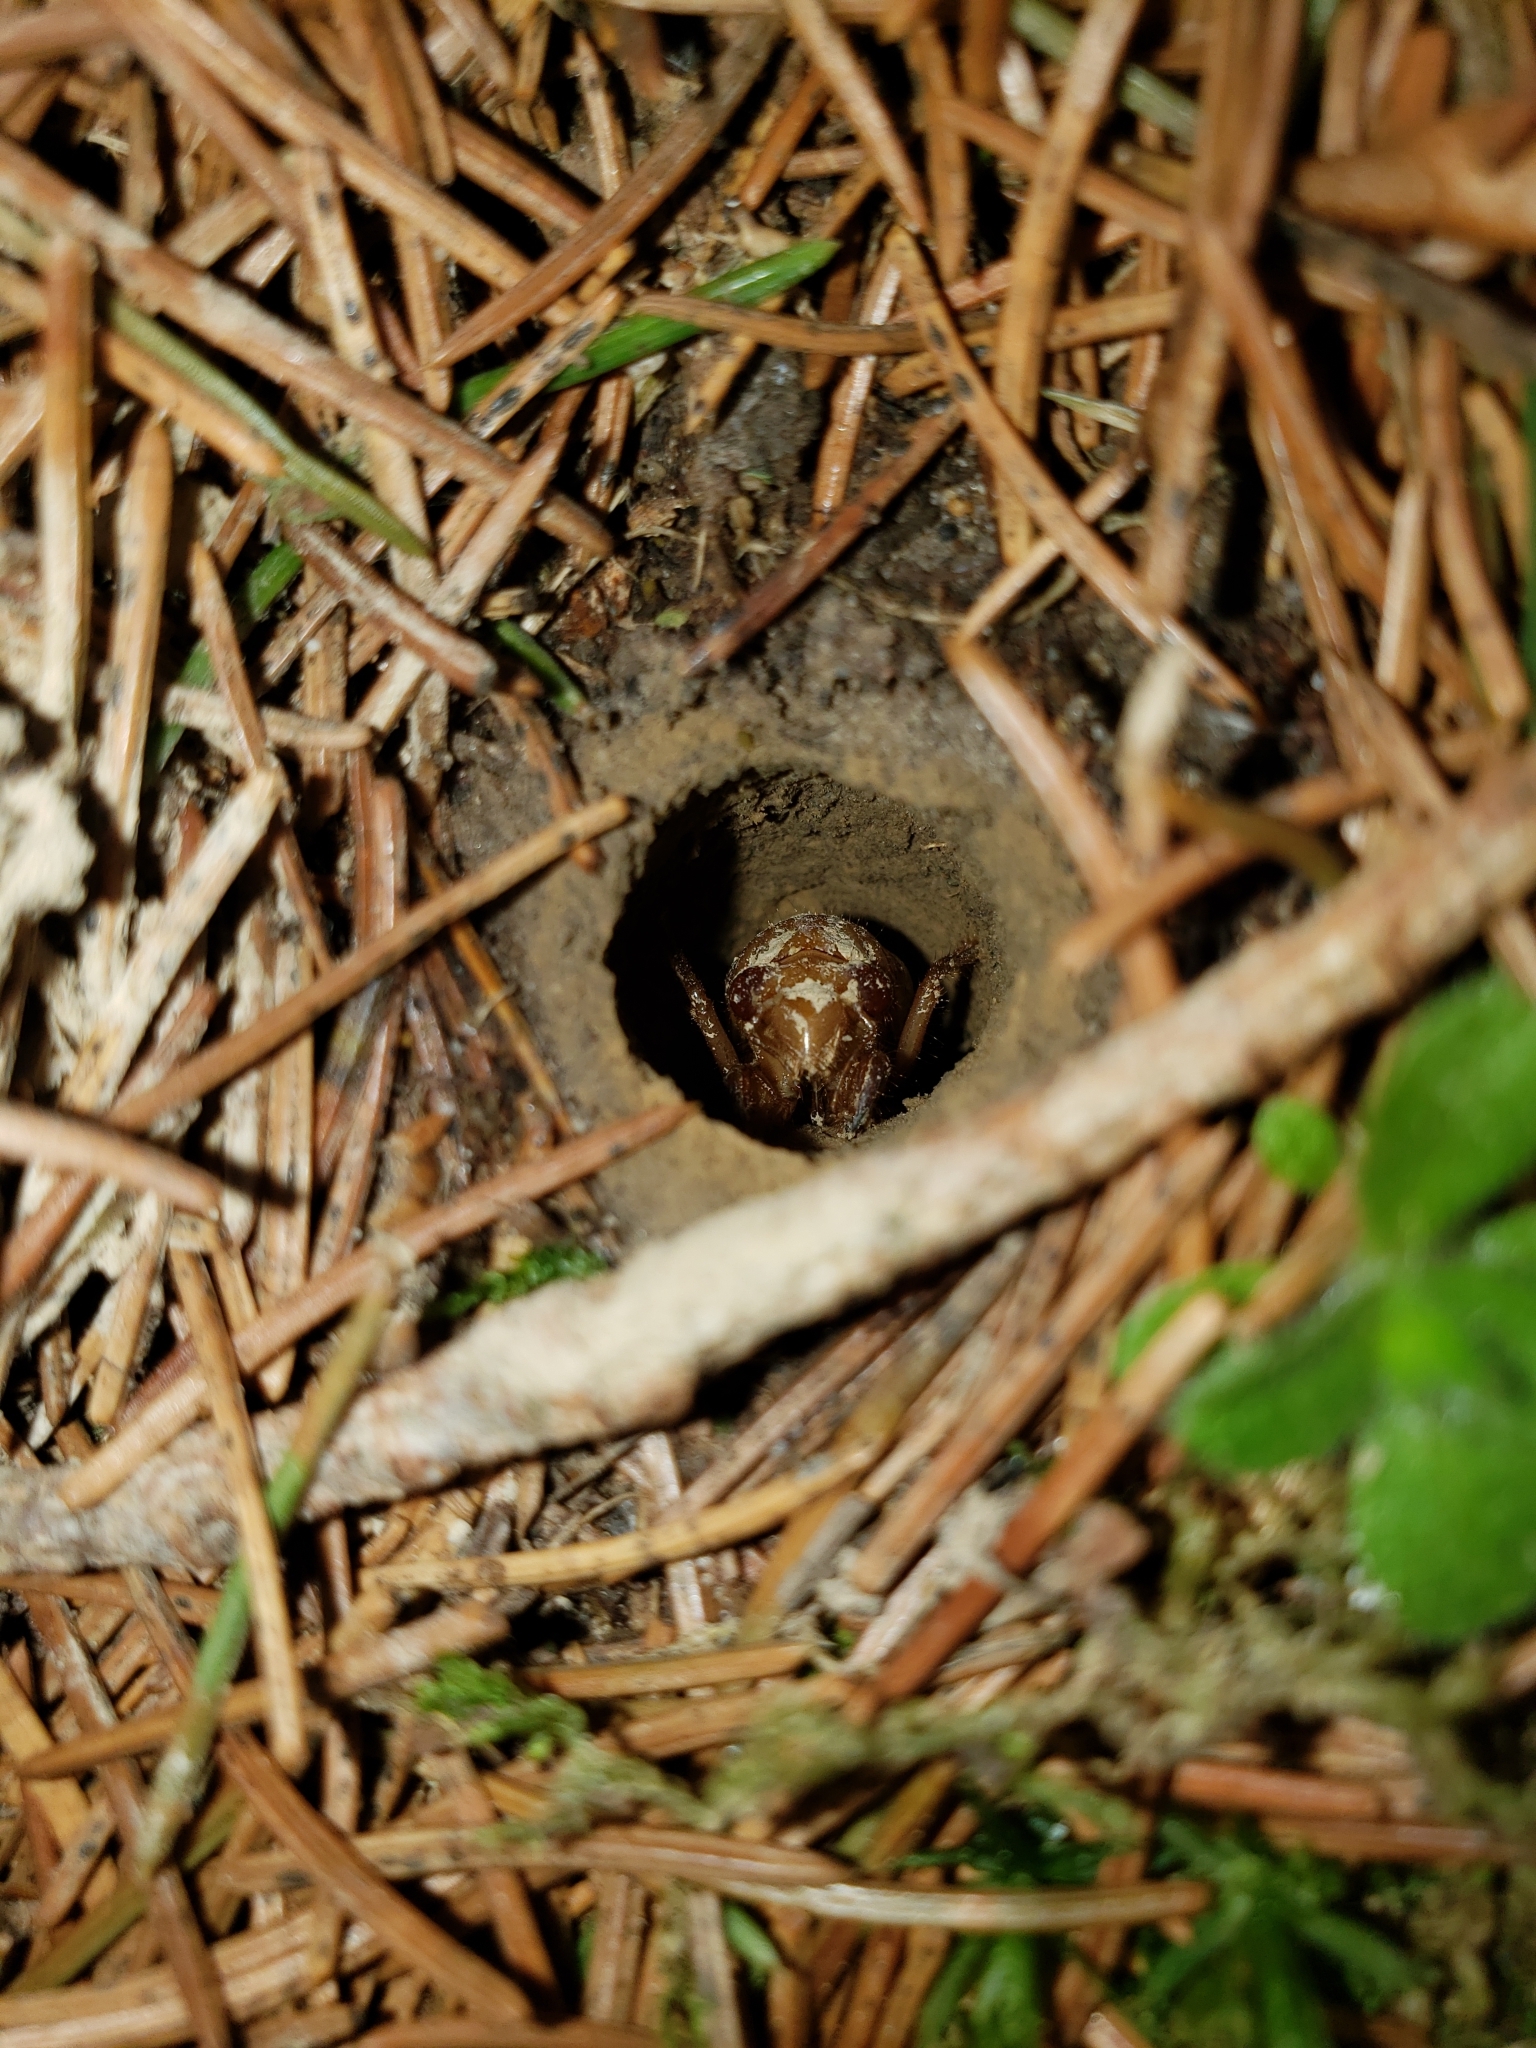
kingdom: Animalia
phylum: Arthropoda
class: Insecta
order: Hemiptera
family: Cicadidae
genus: Magicicada
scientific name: Magicicada
